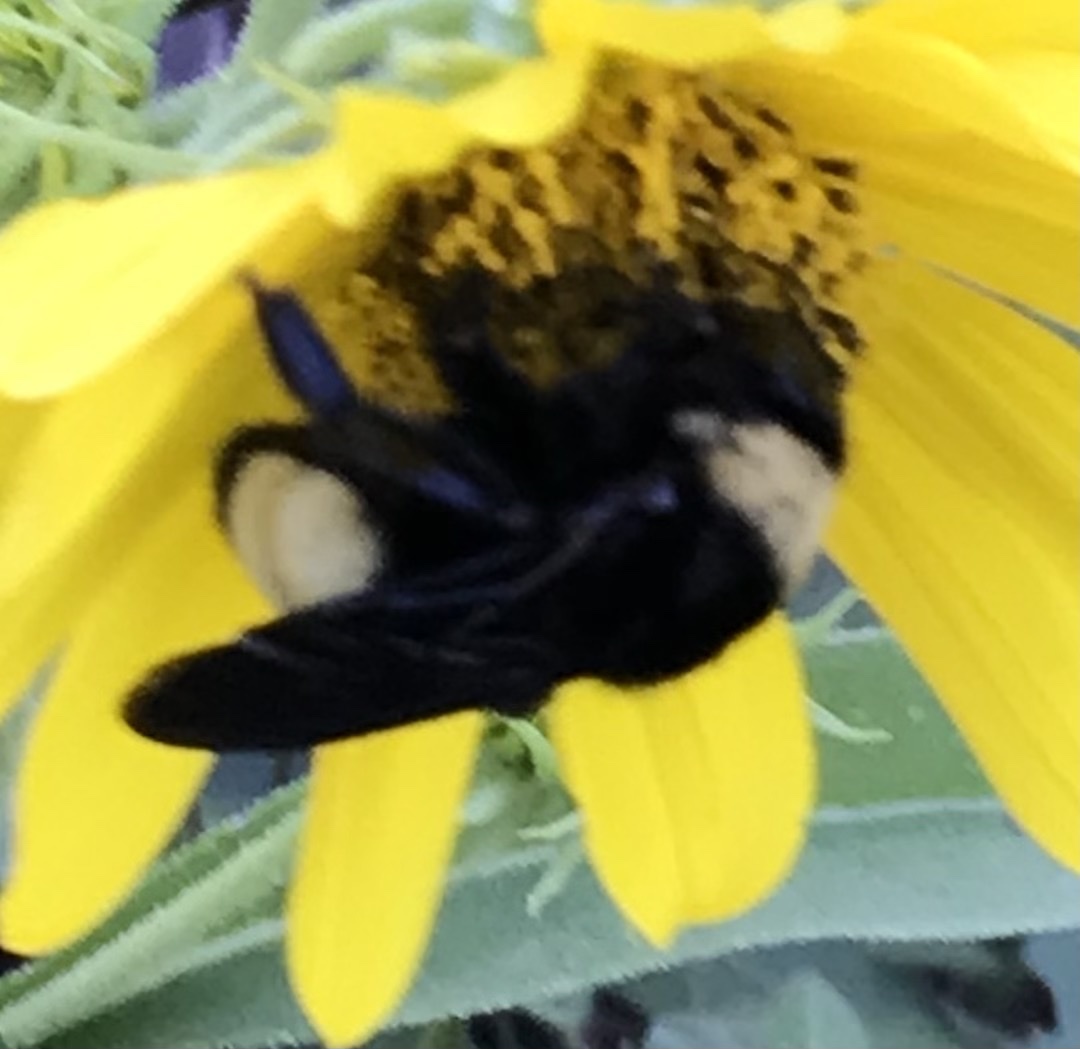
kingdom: Animalia
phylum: Arthropoda
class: Insecta
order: Hymenoptera
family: Apidae
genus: Bombus
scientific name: Bombus pensylvanicus
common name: Bumble bee
